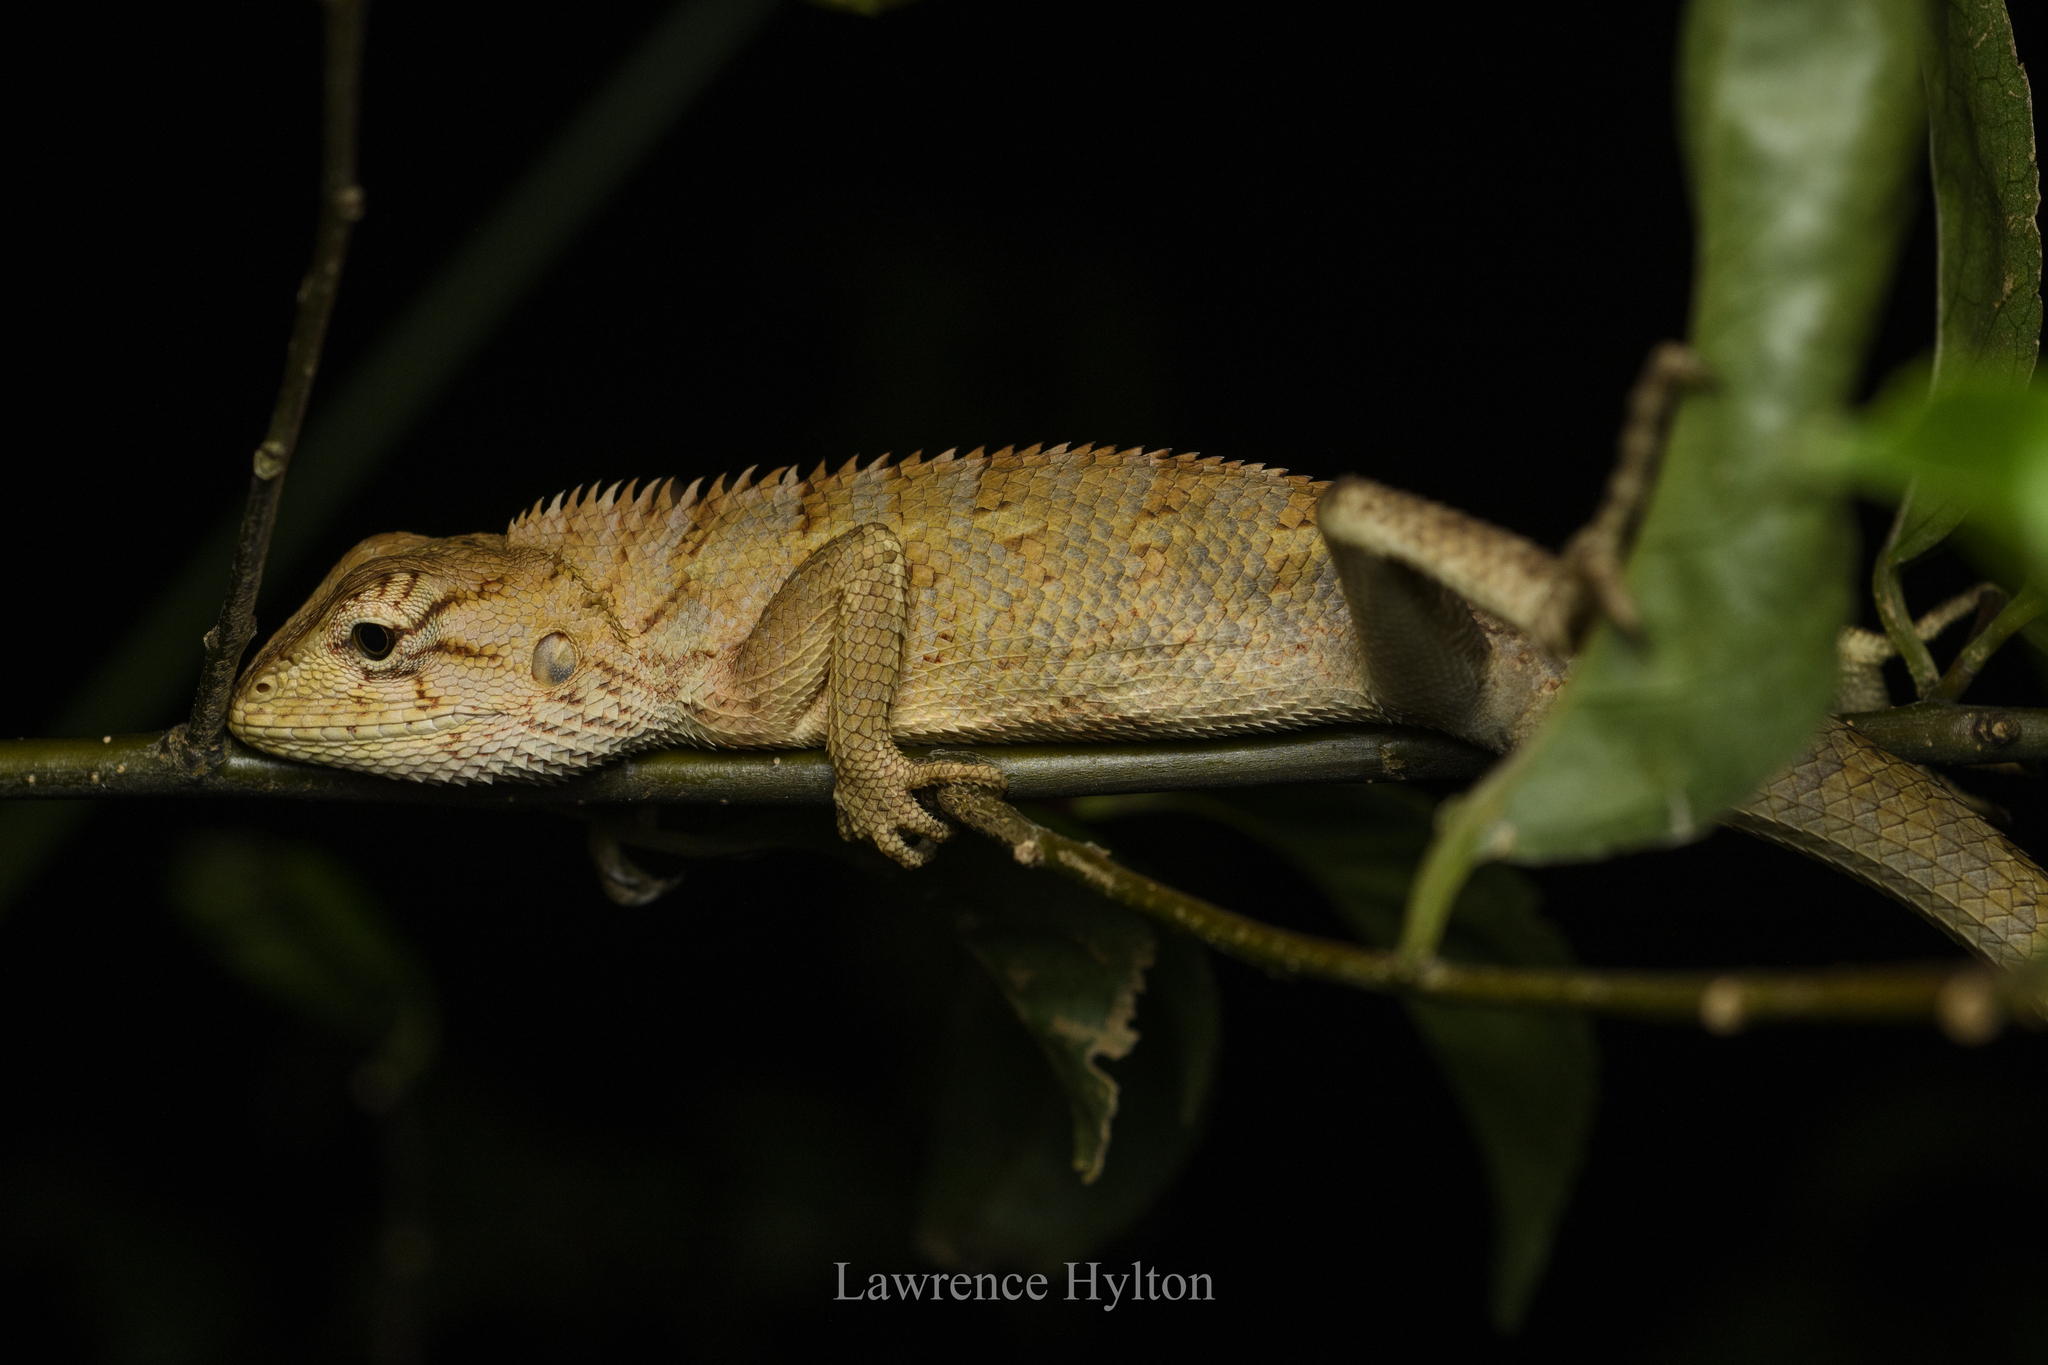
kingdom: Animalia
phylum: Chordata
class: Squamata
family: Agamidae
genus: Calotes
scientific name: Calotes versicolor
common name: Oriental garden lizard
